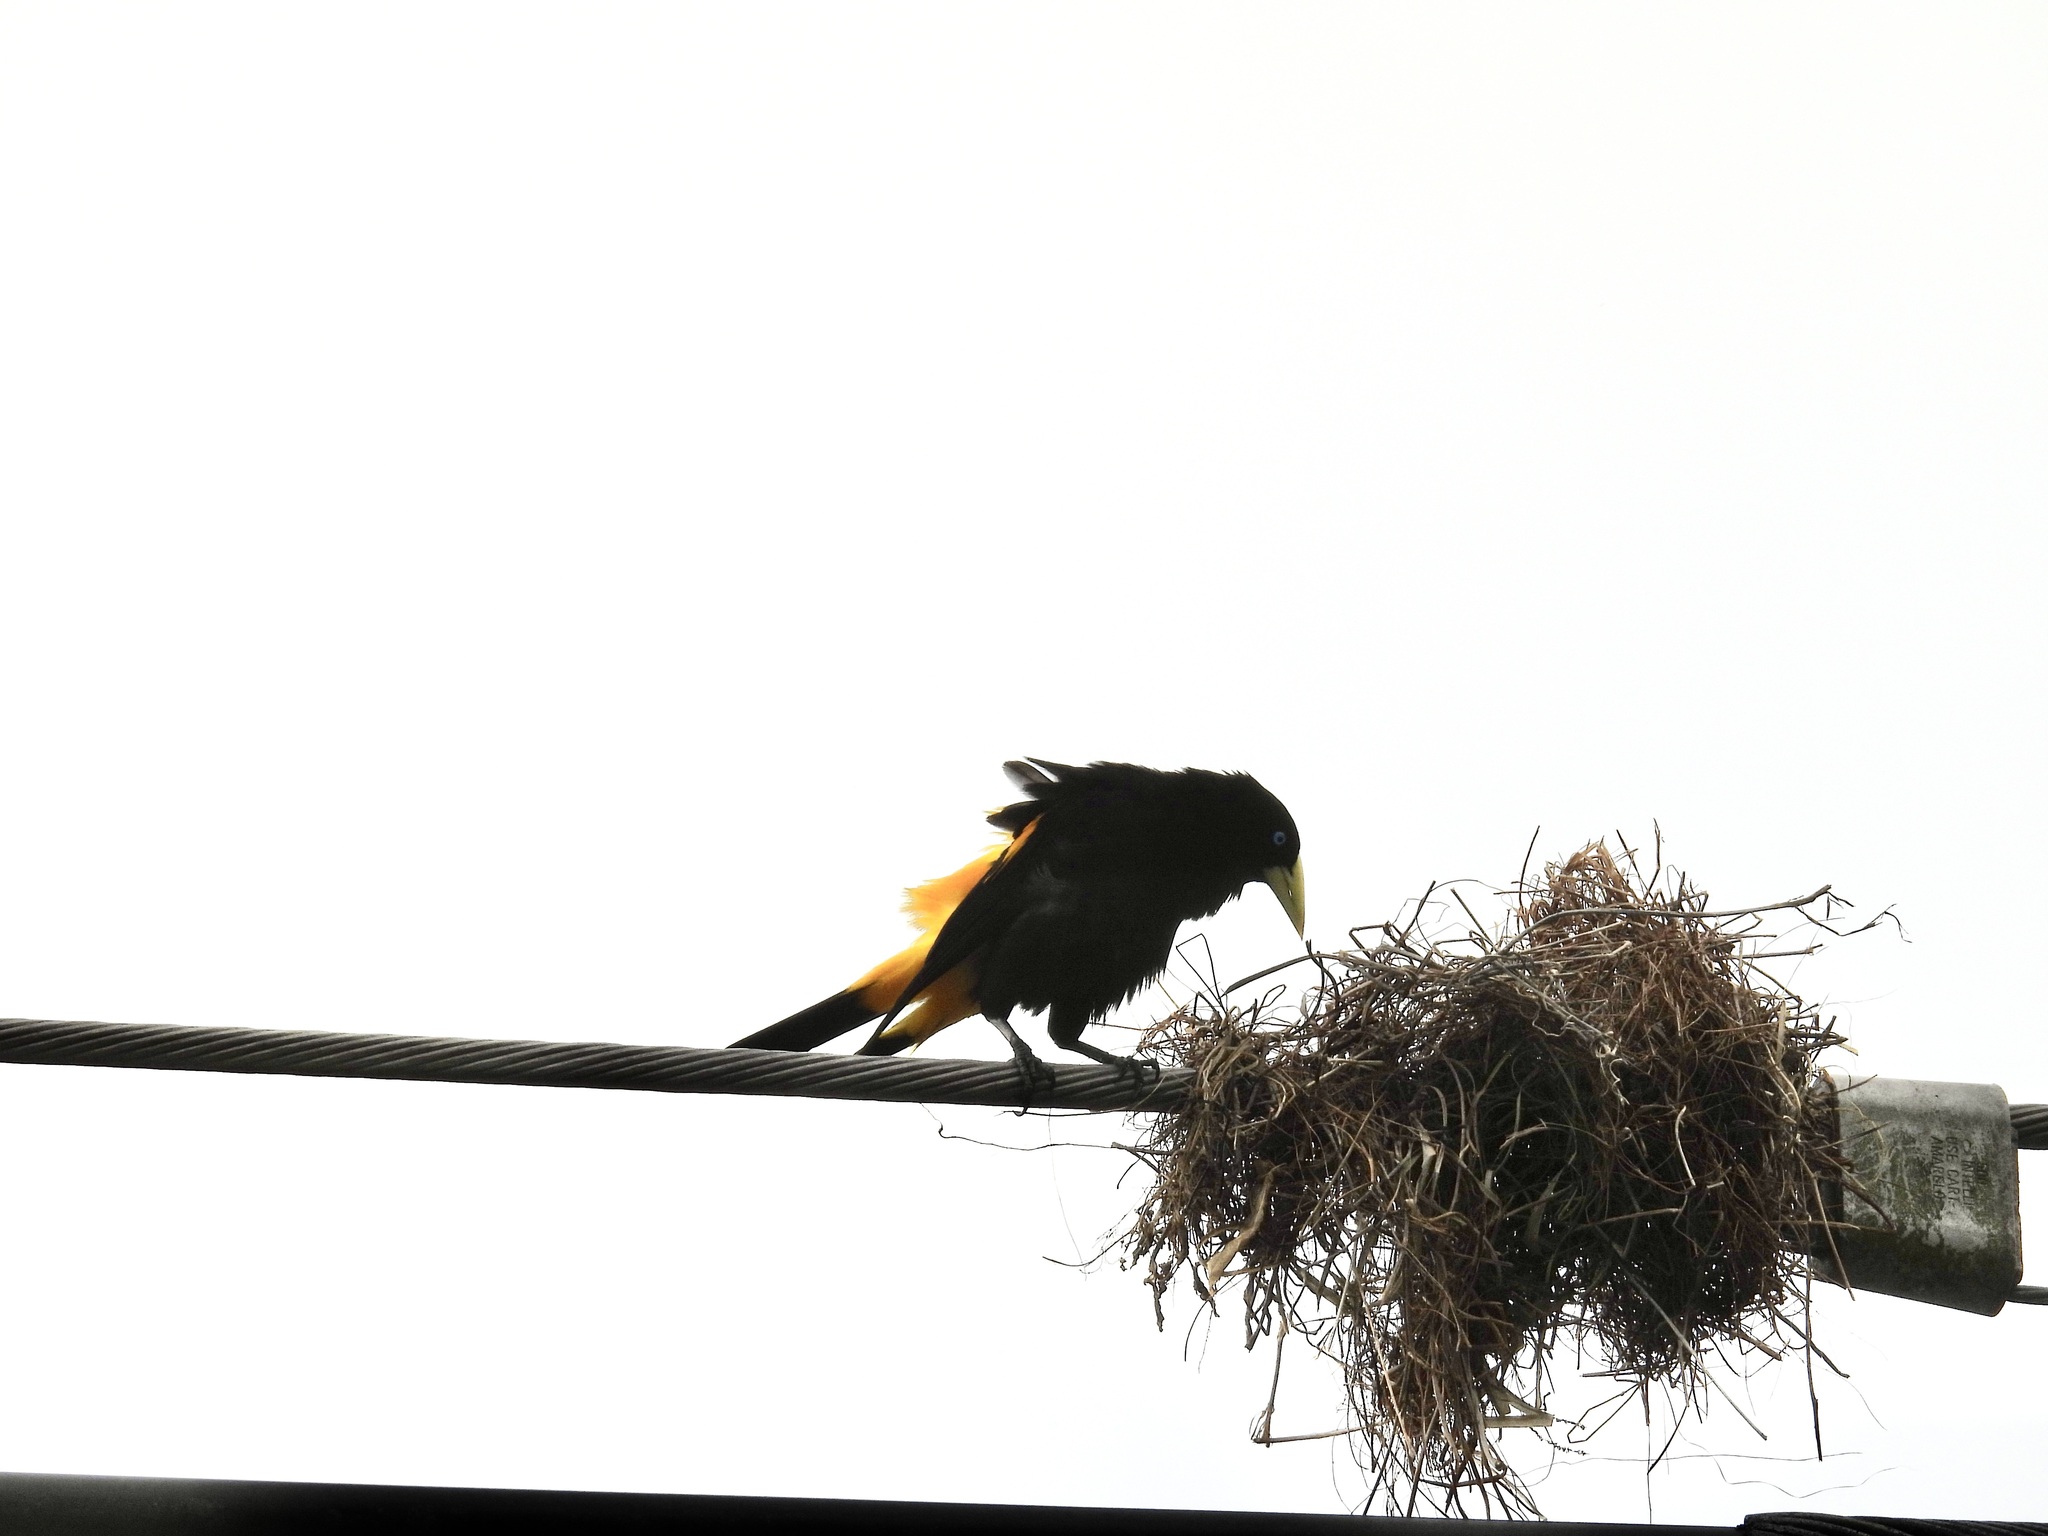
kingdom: Animalia
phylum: Chordata
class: Aves
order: Passeriformes
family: Icteridae
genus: Cacicus
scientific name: Cacicus cela
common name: Yellow-rumped cacique
